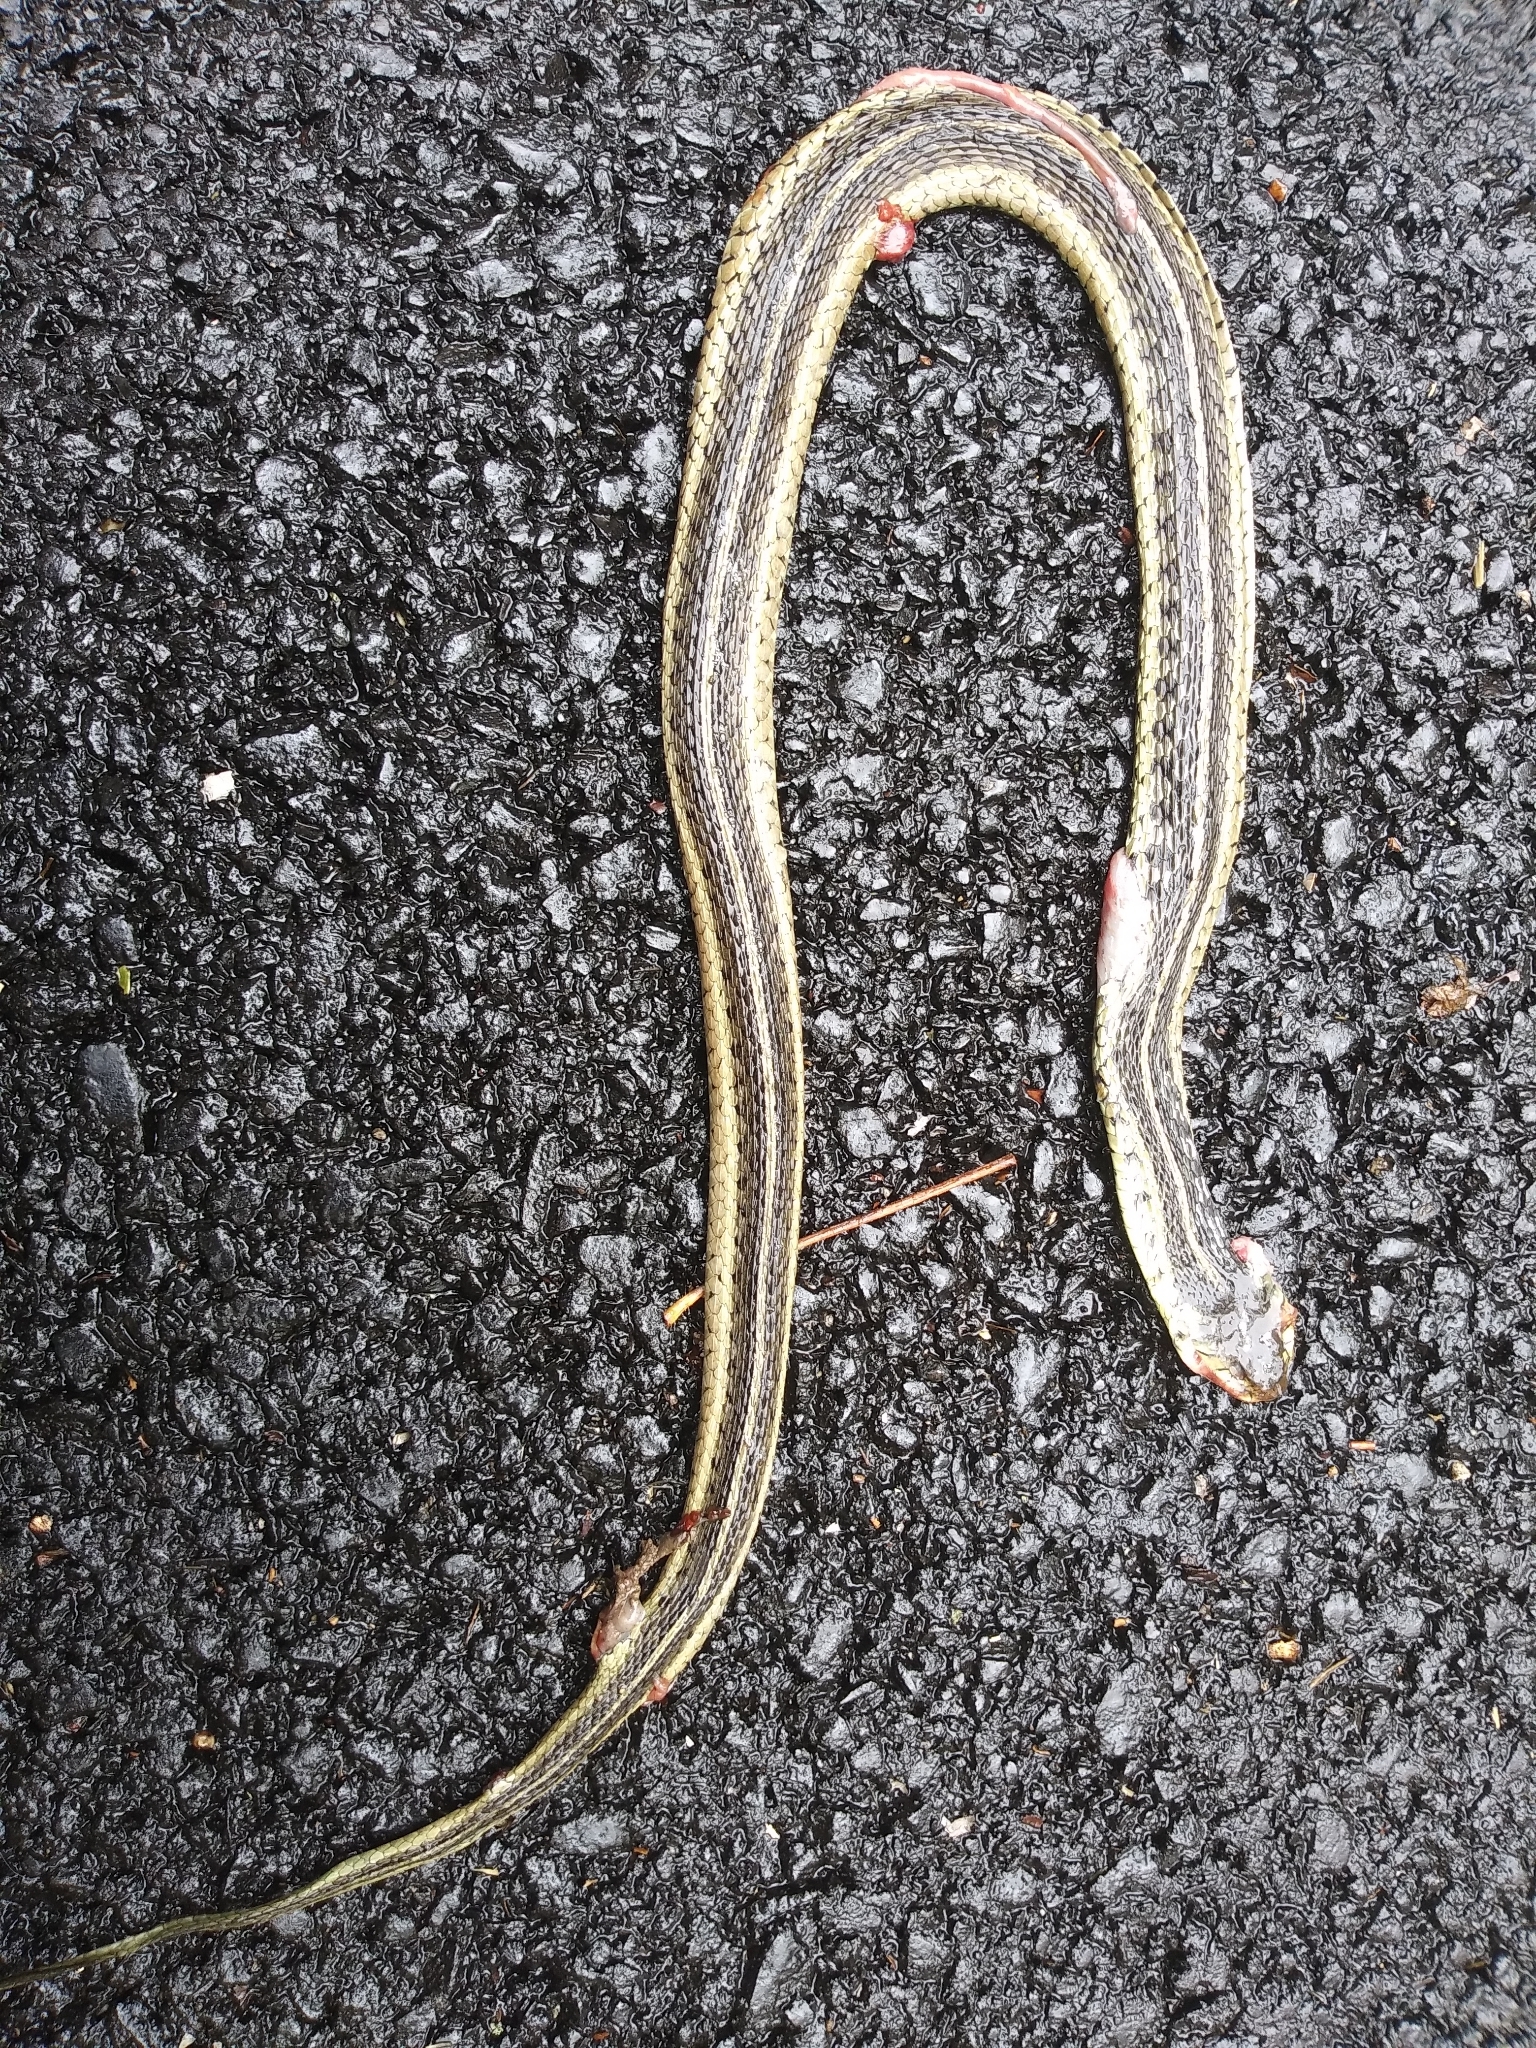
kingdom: Animalia
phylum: Chordata
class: Squamata
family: Colubridae
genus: Thamnophis
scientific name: Thamnophis sirtalis
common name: Common garter snake
